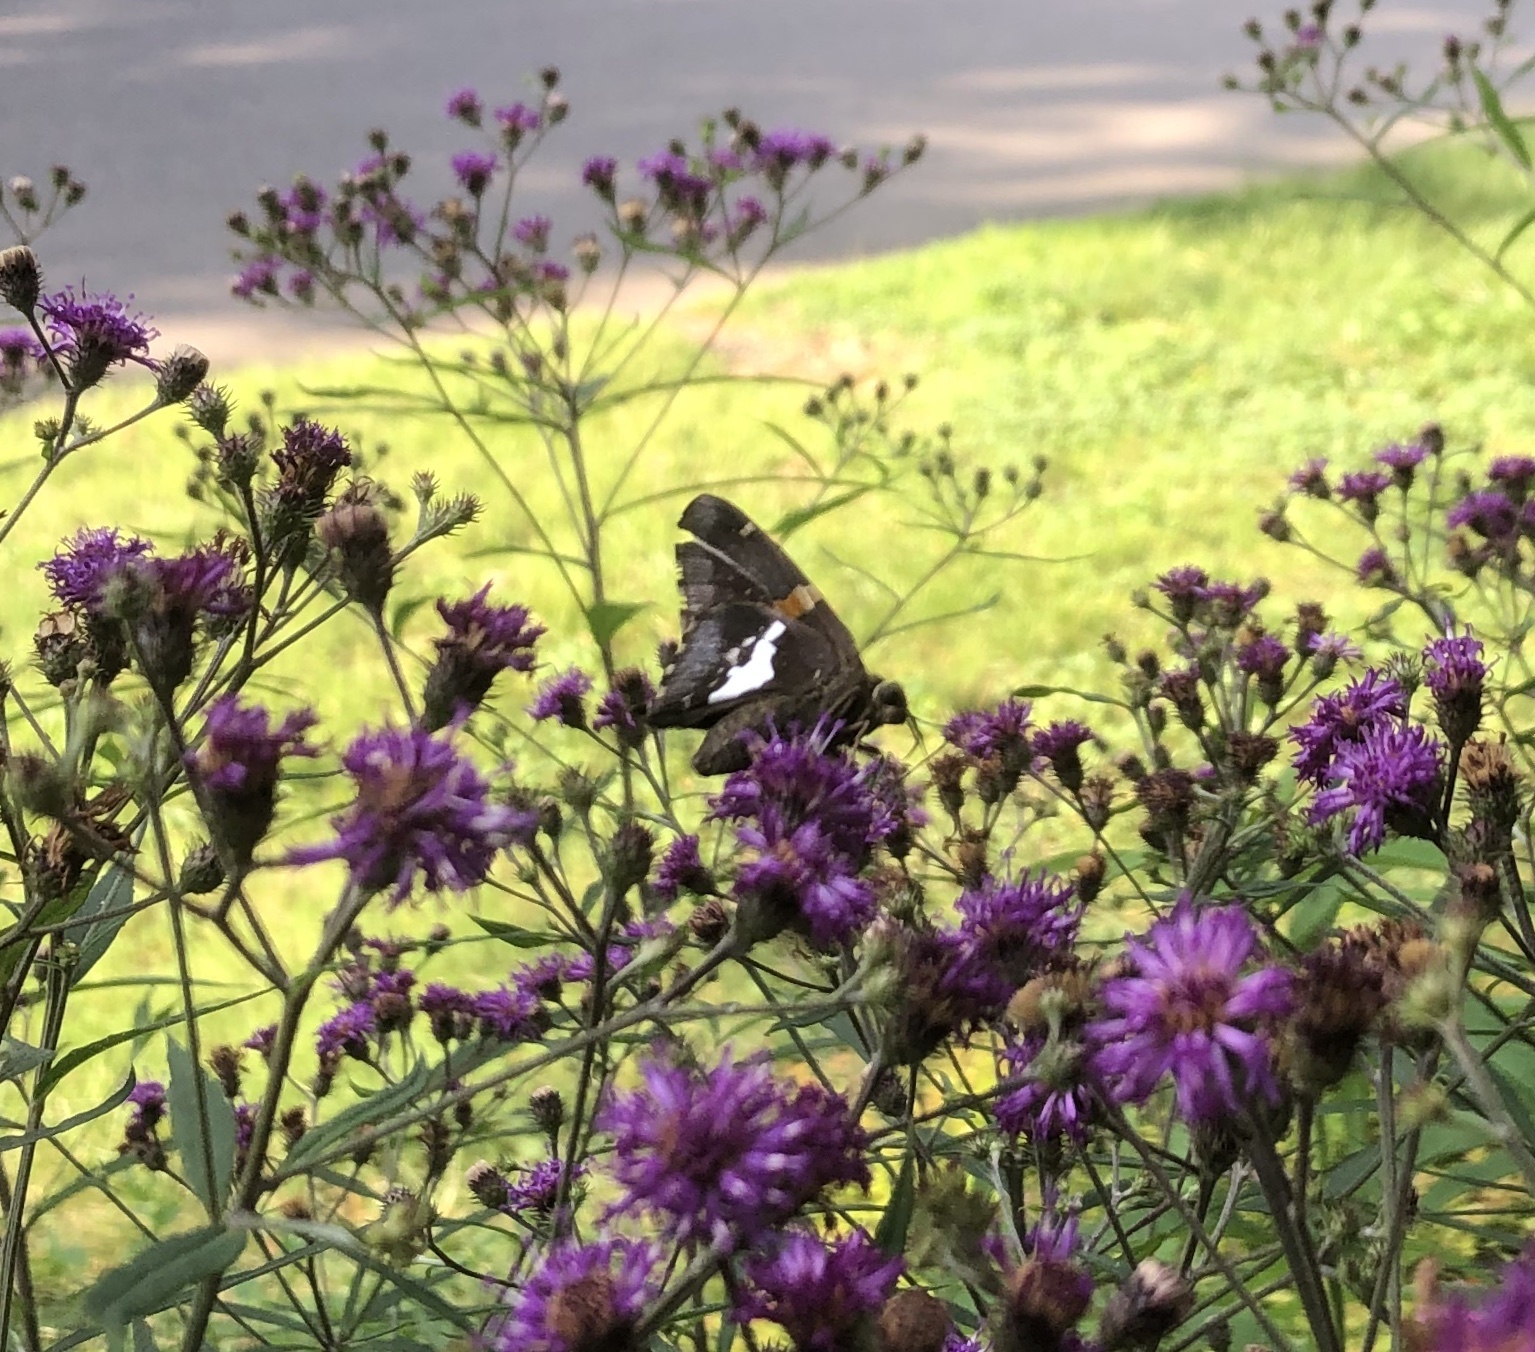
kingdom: Animalia
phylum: Arthropoda
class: Insecta
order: Lepidoptera
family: Hesperiidae
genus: Epargyreus
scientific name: Epargyreus clarus
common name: Silver-spotted skipper
